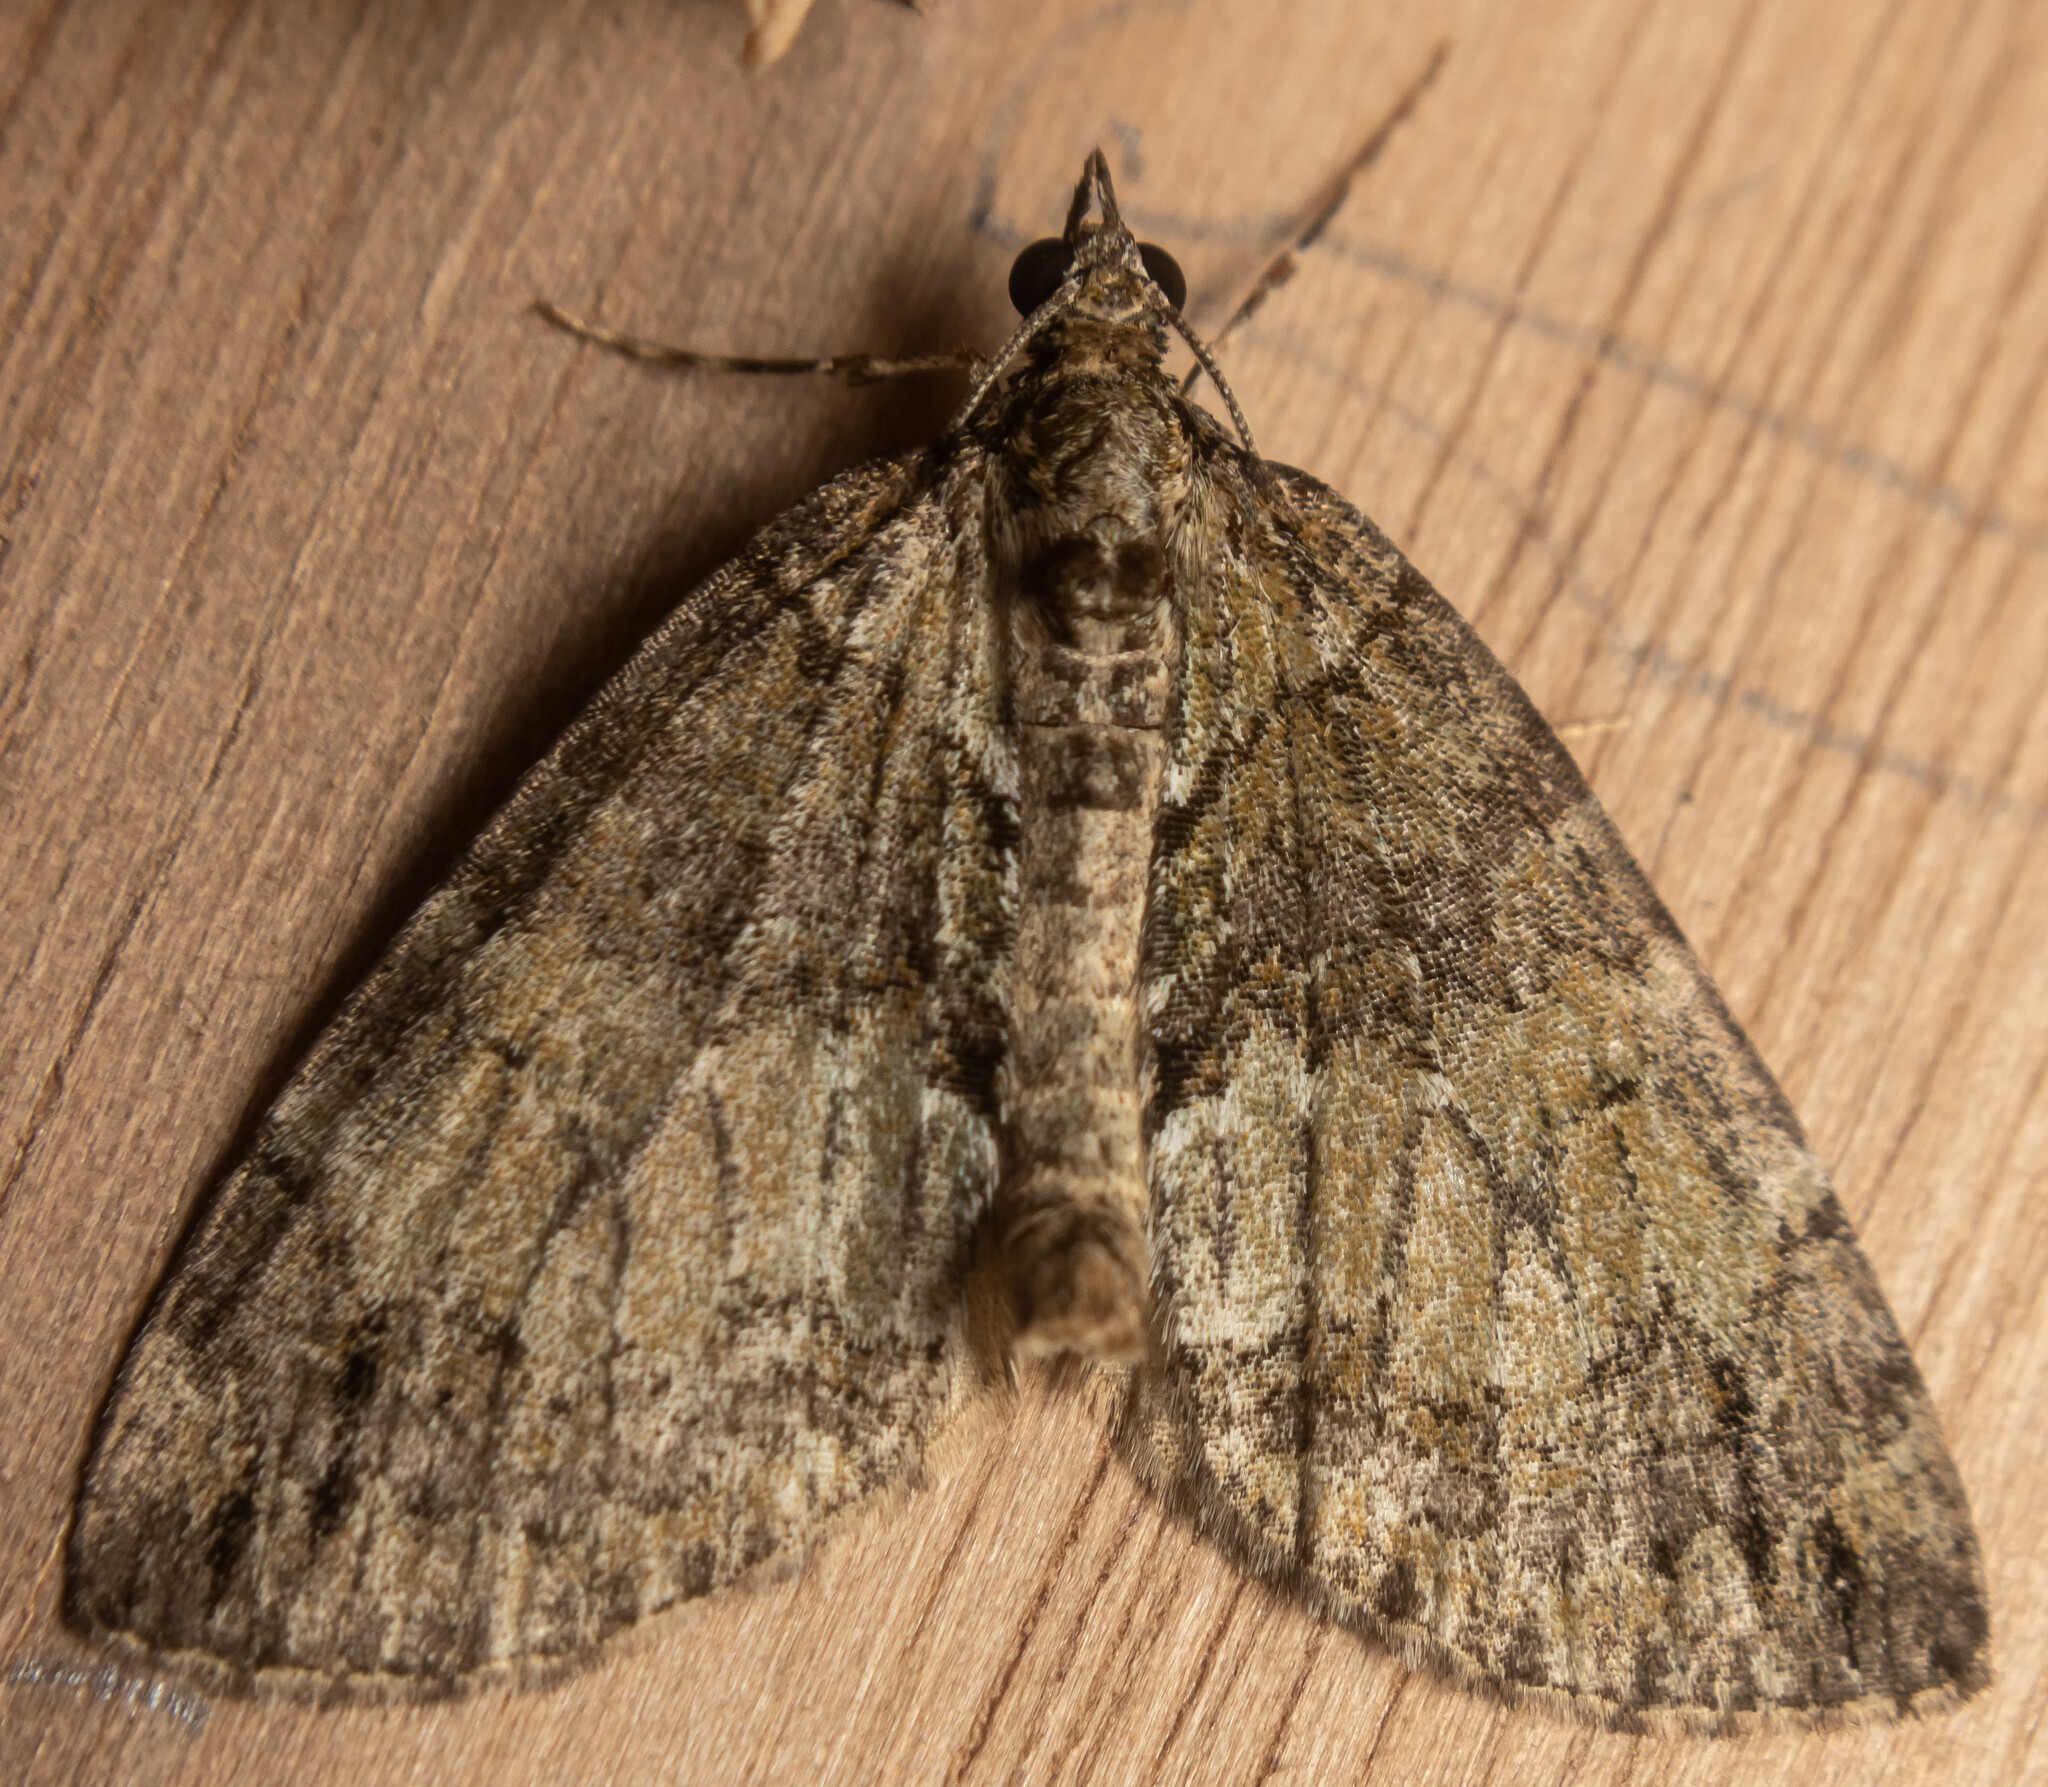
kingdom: Animalia
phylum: Arthropoda
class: Insecta
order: Lepidoptera
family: Geometridae
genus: Hydriomena
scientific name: Hydriomena impluviata
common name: May highflyer
